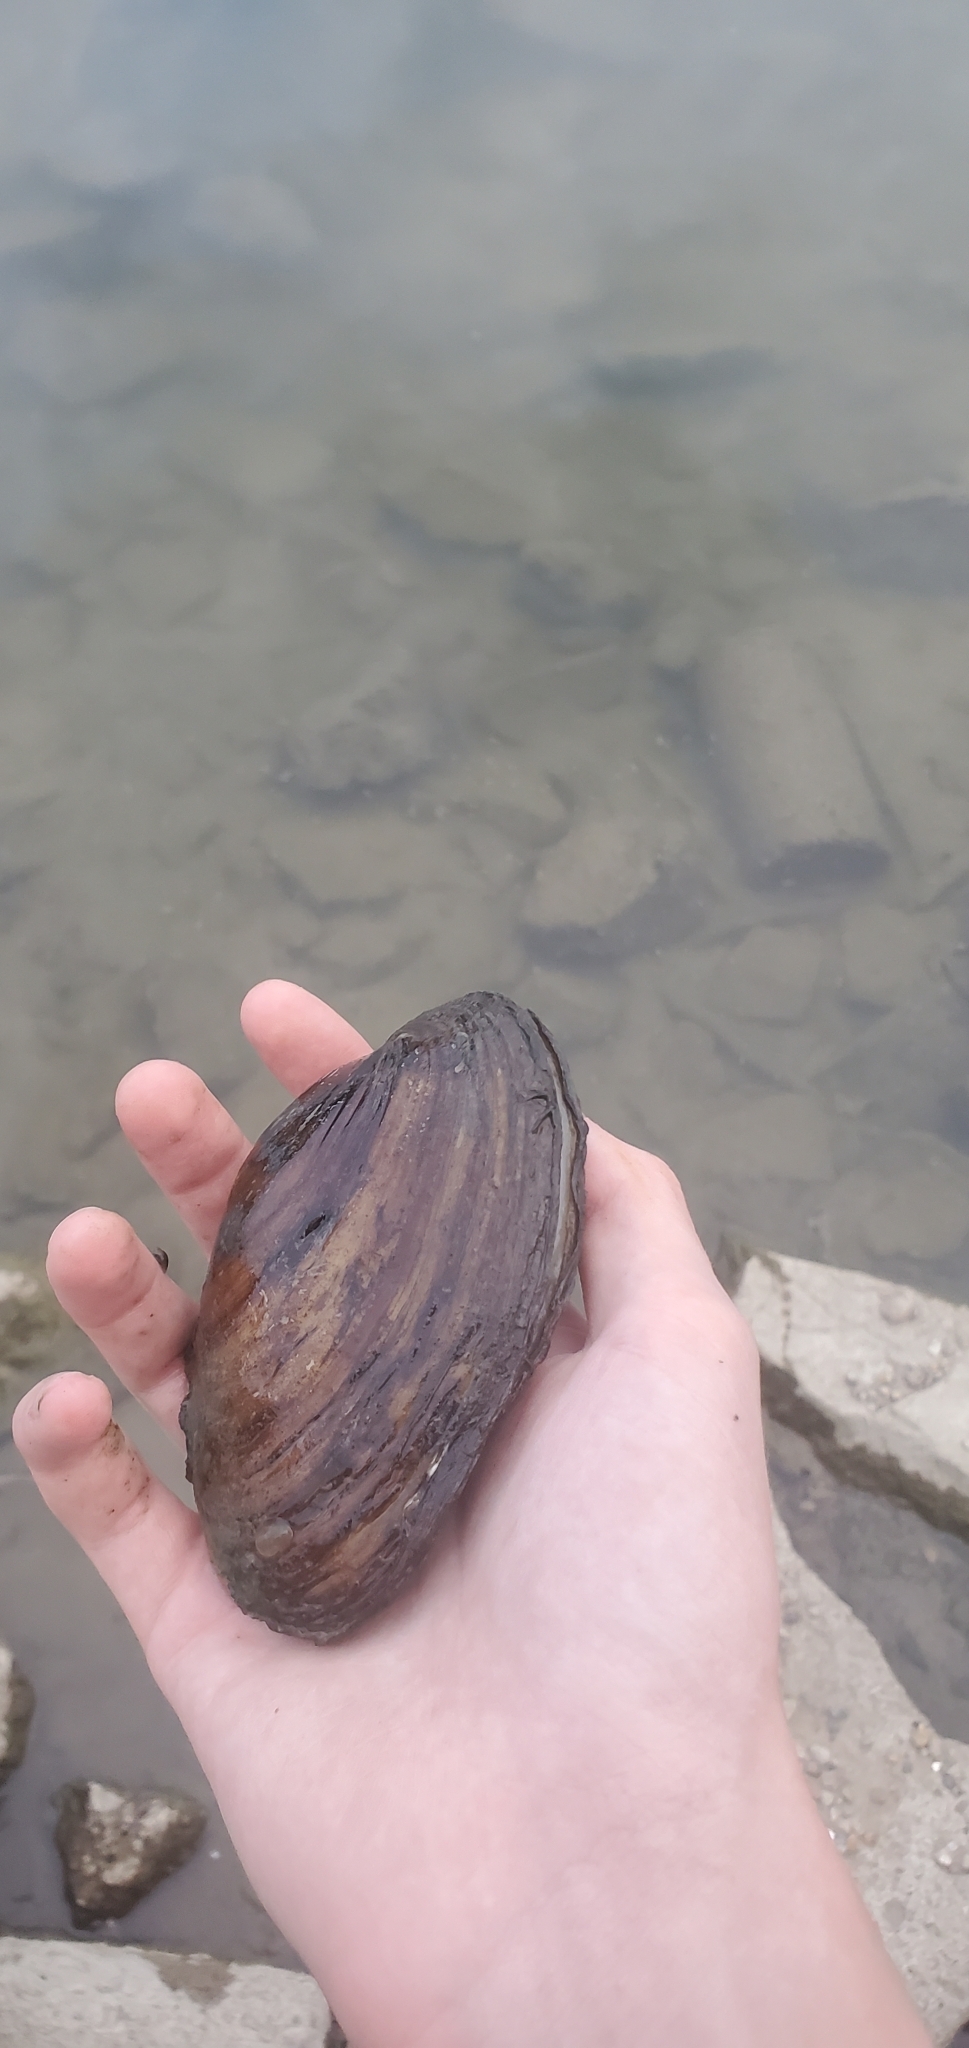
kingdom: Animalia
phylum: Mollusca
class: Bivalvia
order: Unionida
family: Unionidae
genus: Potamilus
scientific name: Potamilus fragilis
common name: Fragile papershell
